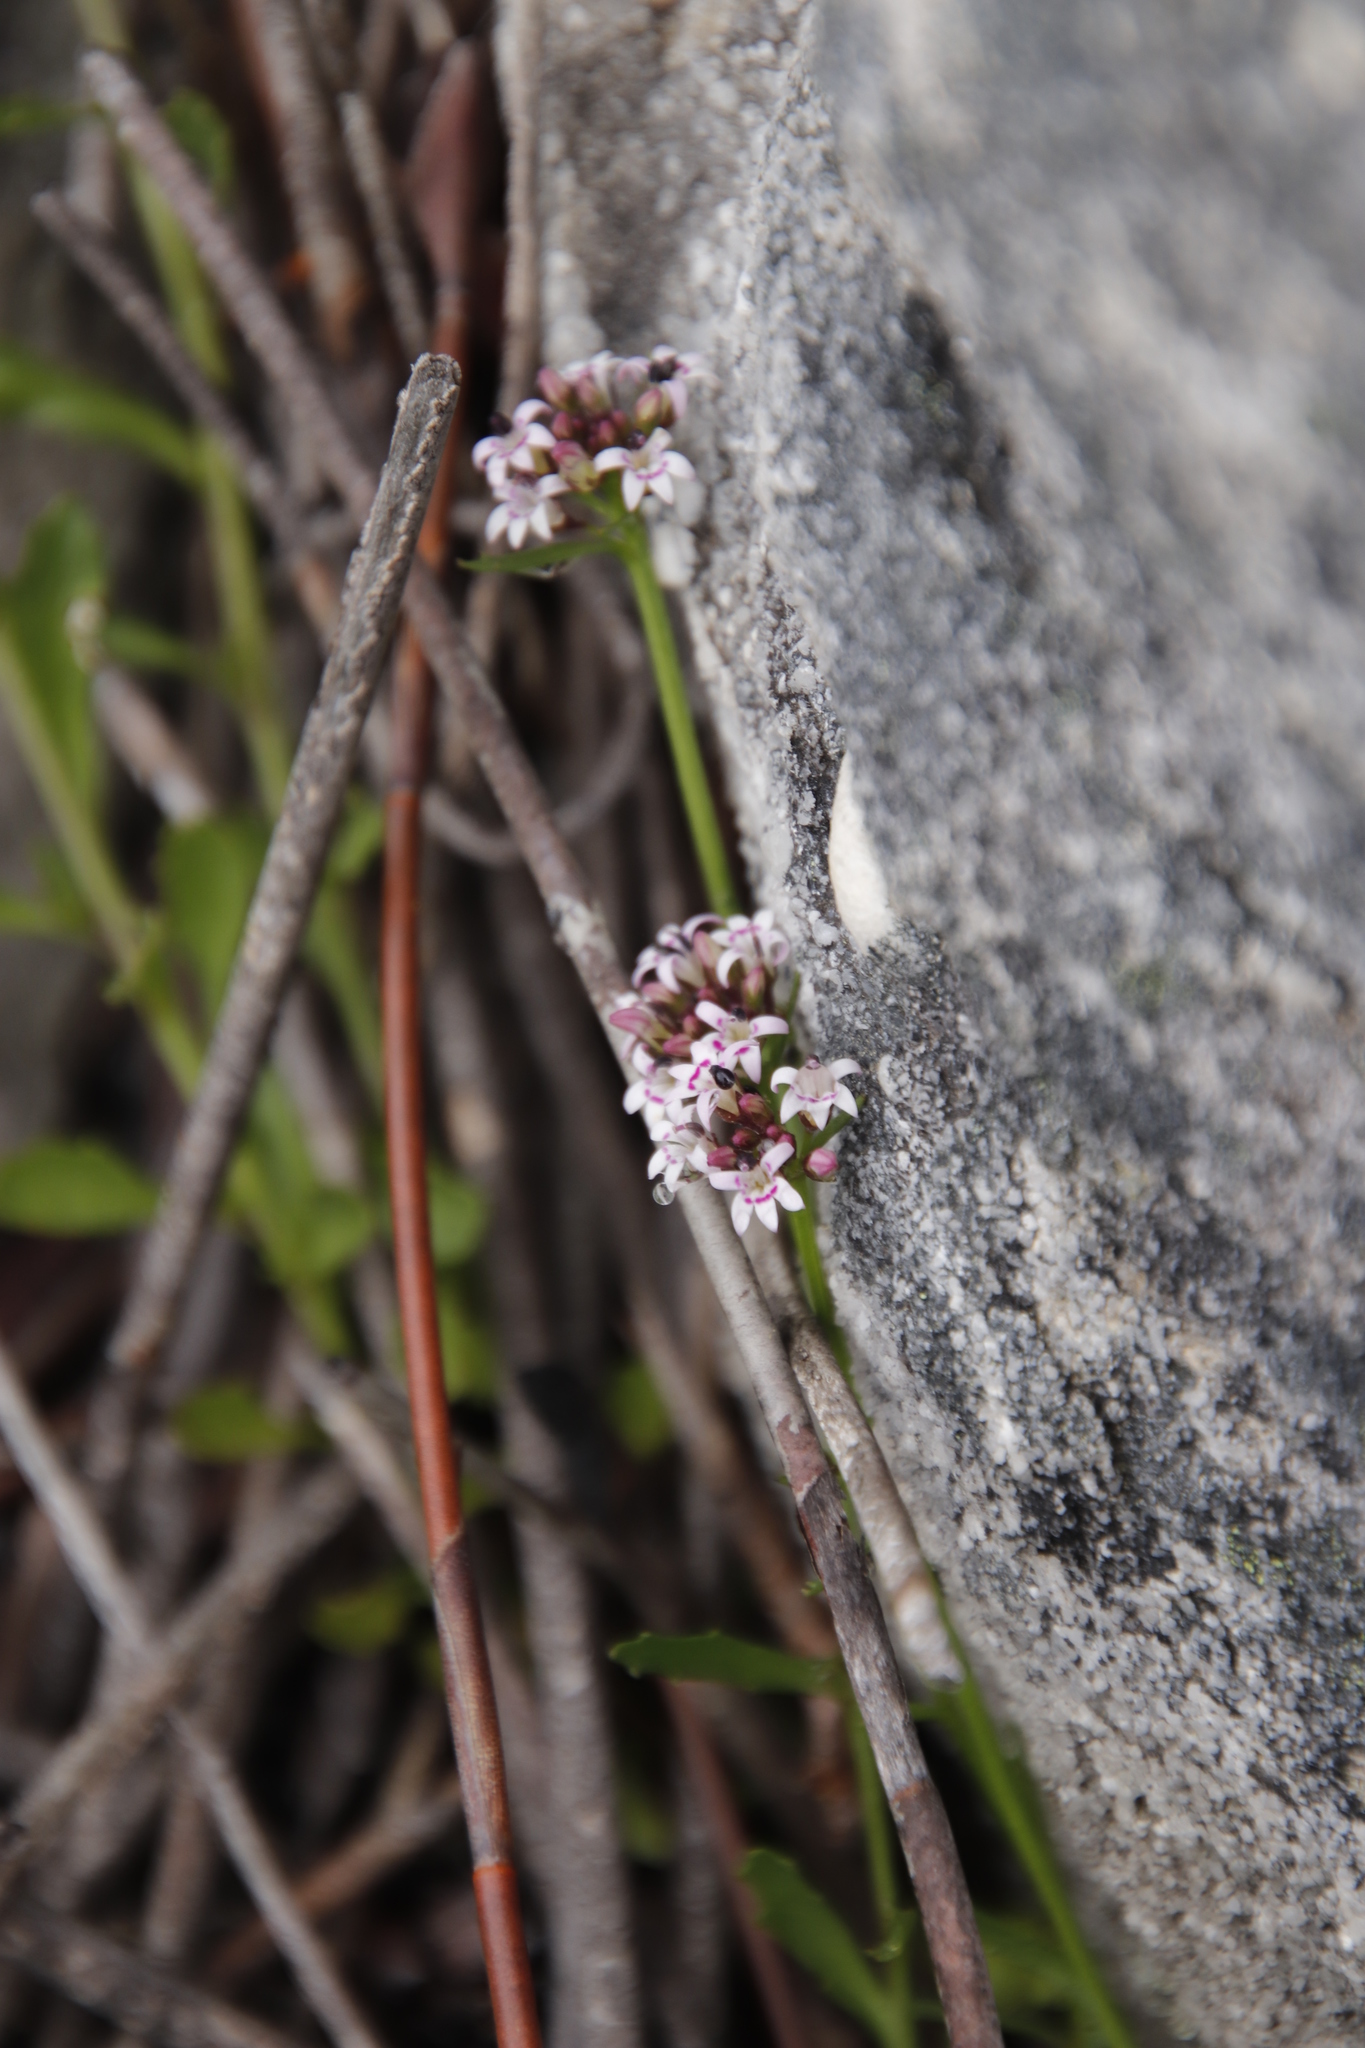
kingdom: Plantae
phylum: Tracheophyta
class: Magnoliopsida
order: Asterales
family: Campanulaceae
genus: Lobelia
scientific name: Lobelia jasionoides
